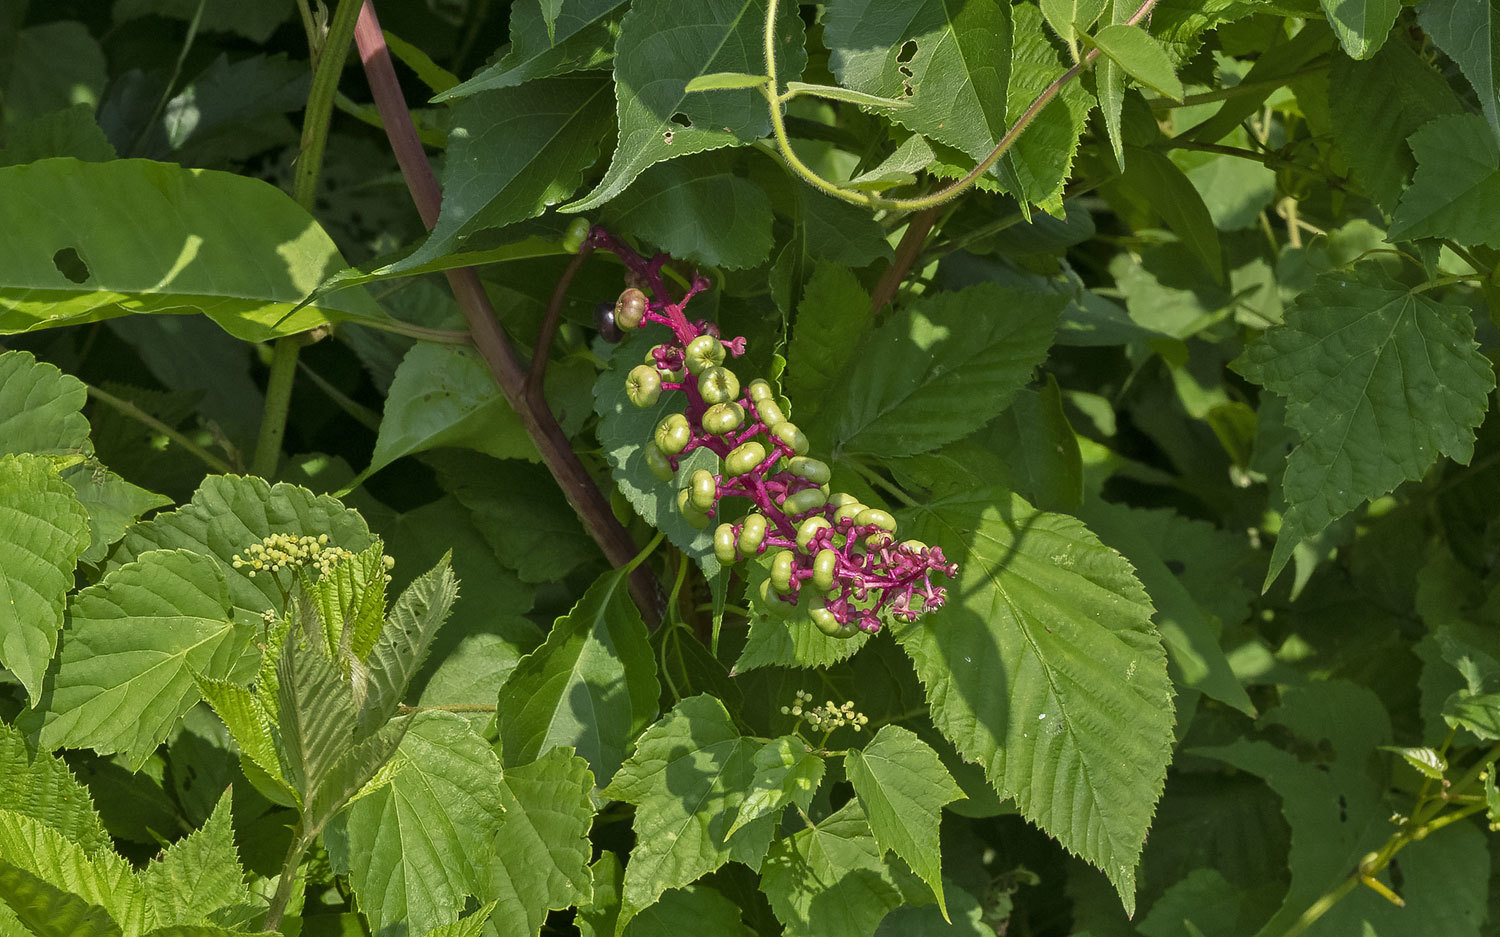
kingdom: Plantae
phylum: Tracheophyta
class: Magnoliopsida
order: Caryophyllales
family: Phytolaccaceae
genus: Phytolacca
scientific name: Phytolacca americana
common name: American pokeweed
